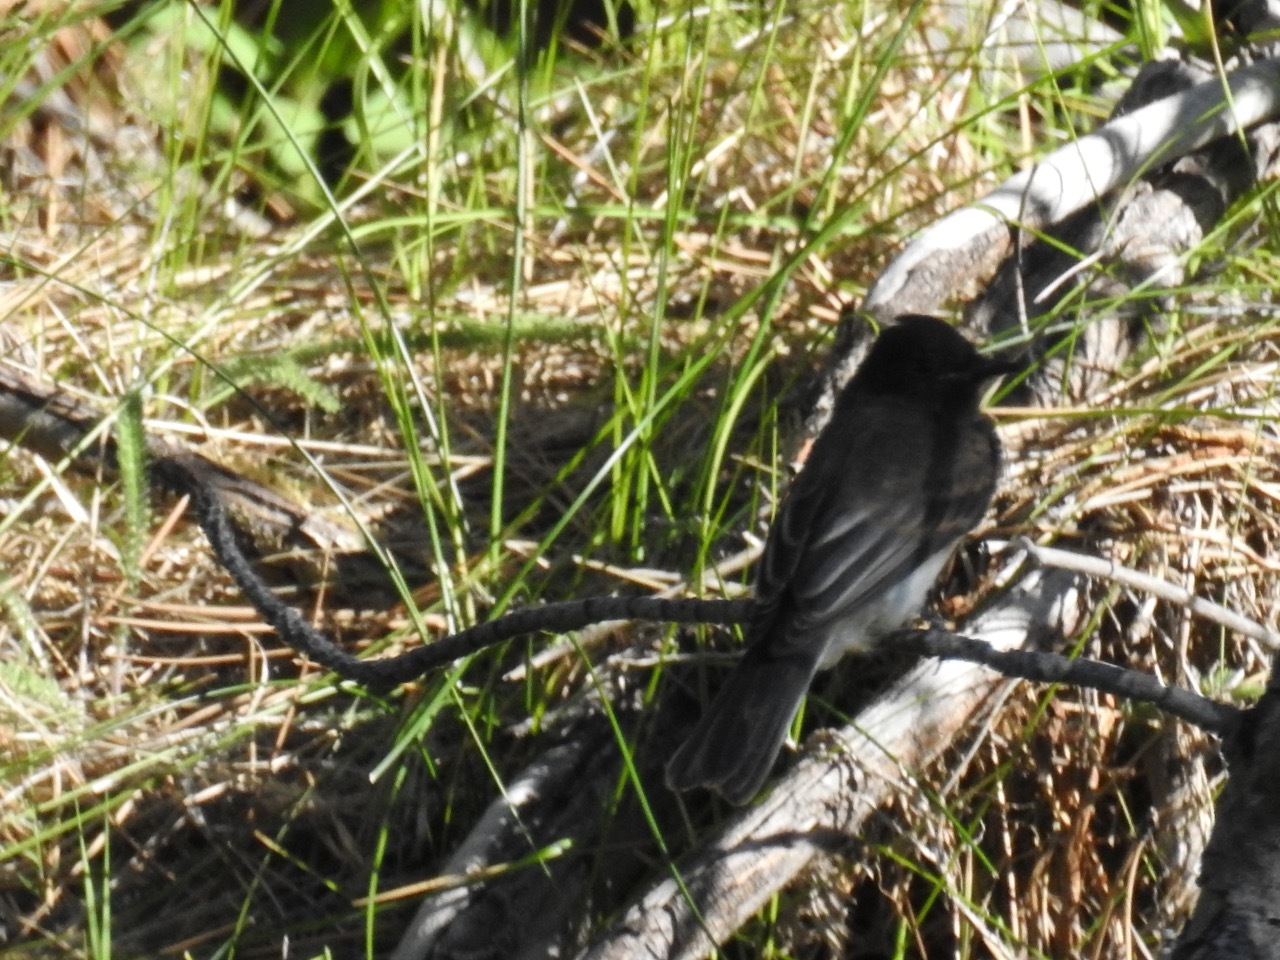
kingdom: Animalia
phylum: Chordata
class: Aves
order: Passeriformes
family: Tyrannidae
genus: Sayornis
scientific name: Sayornis nigricans
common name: Black phoebe
